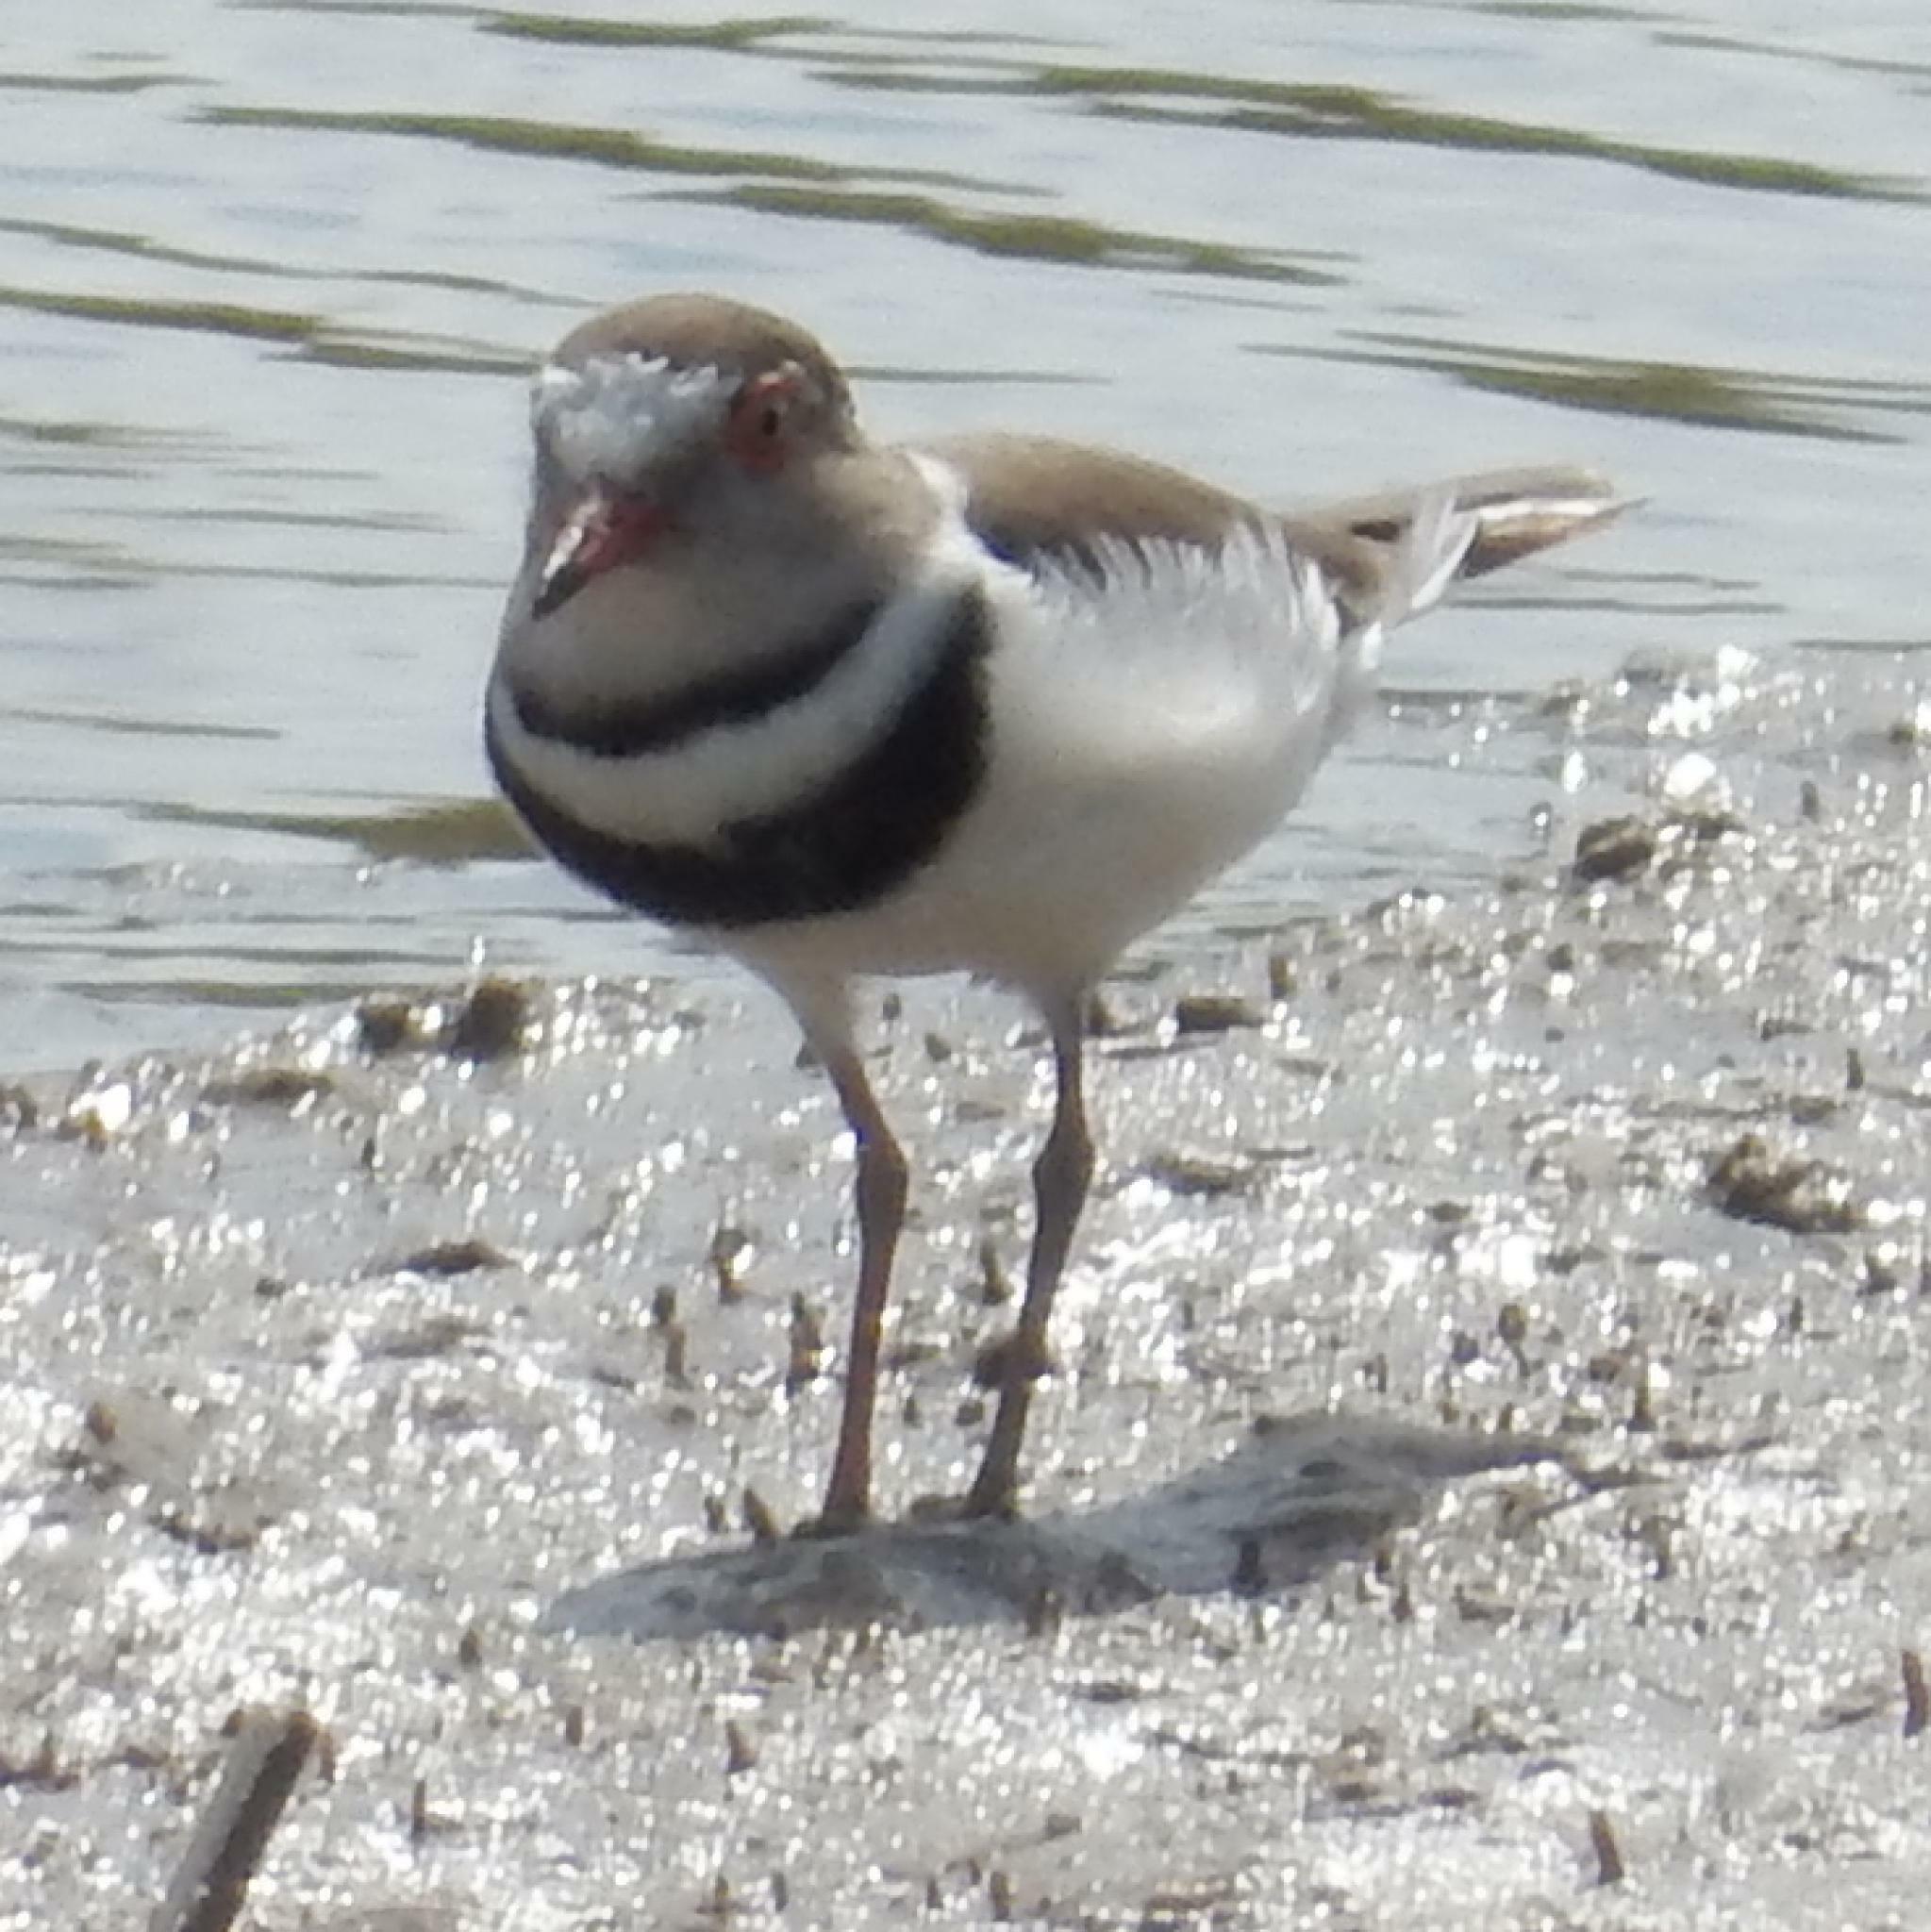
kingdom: Animalia
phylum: Chordata
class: Aves
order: Charadriiformes
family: Charadriidae
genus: Charadrius
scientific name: Charadrius tricollaris
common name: Three-banded plover
